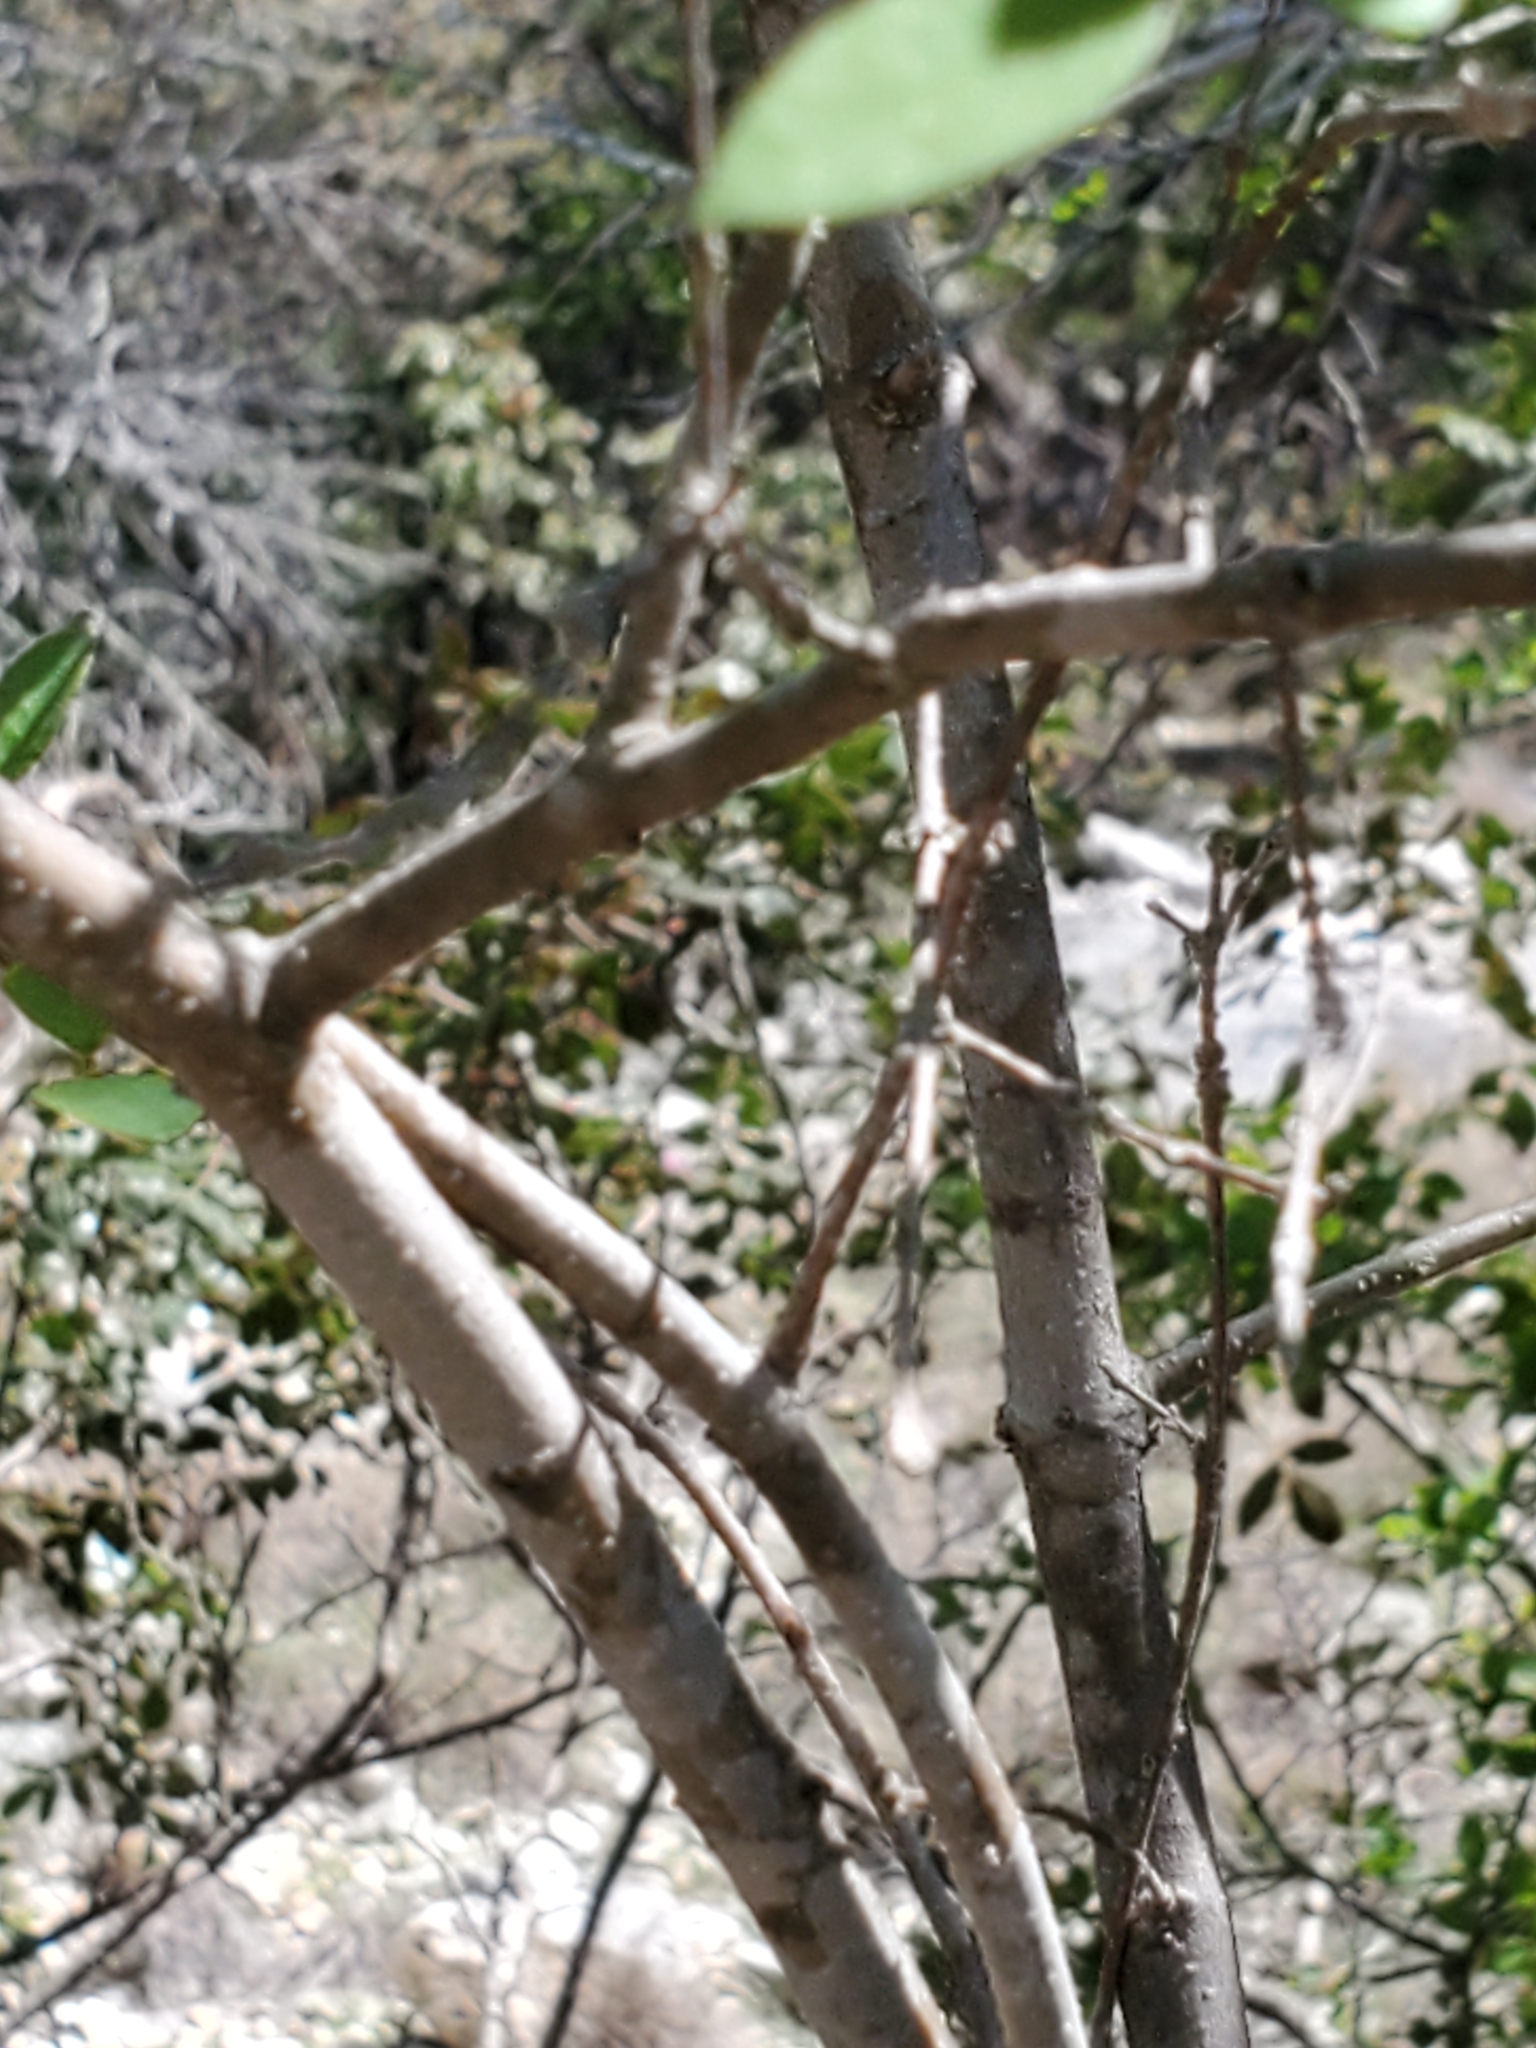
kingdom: Plantae
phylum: Tracheophyta
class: Magnoliopsida
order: Lamiales
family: Oleaceae
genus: Forestiera
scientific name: Forestiera reticulata
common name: Netleaf swamp-privet
